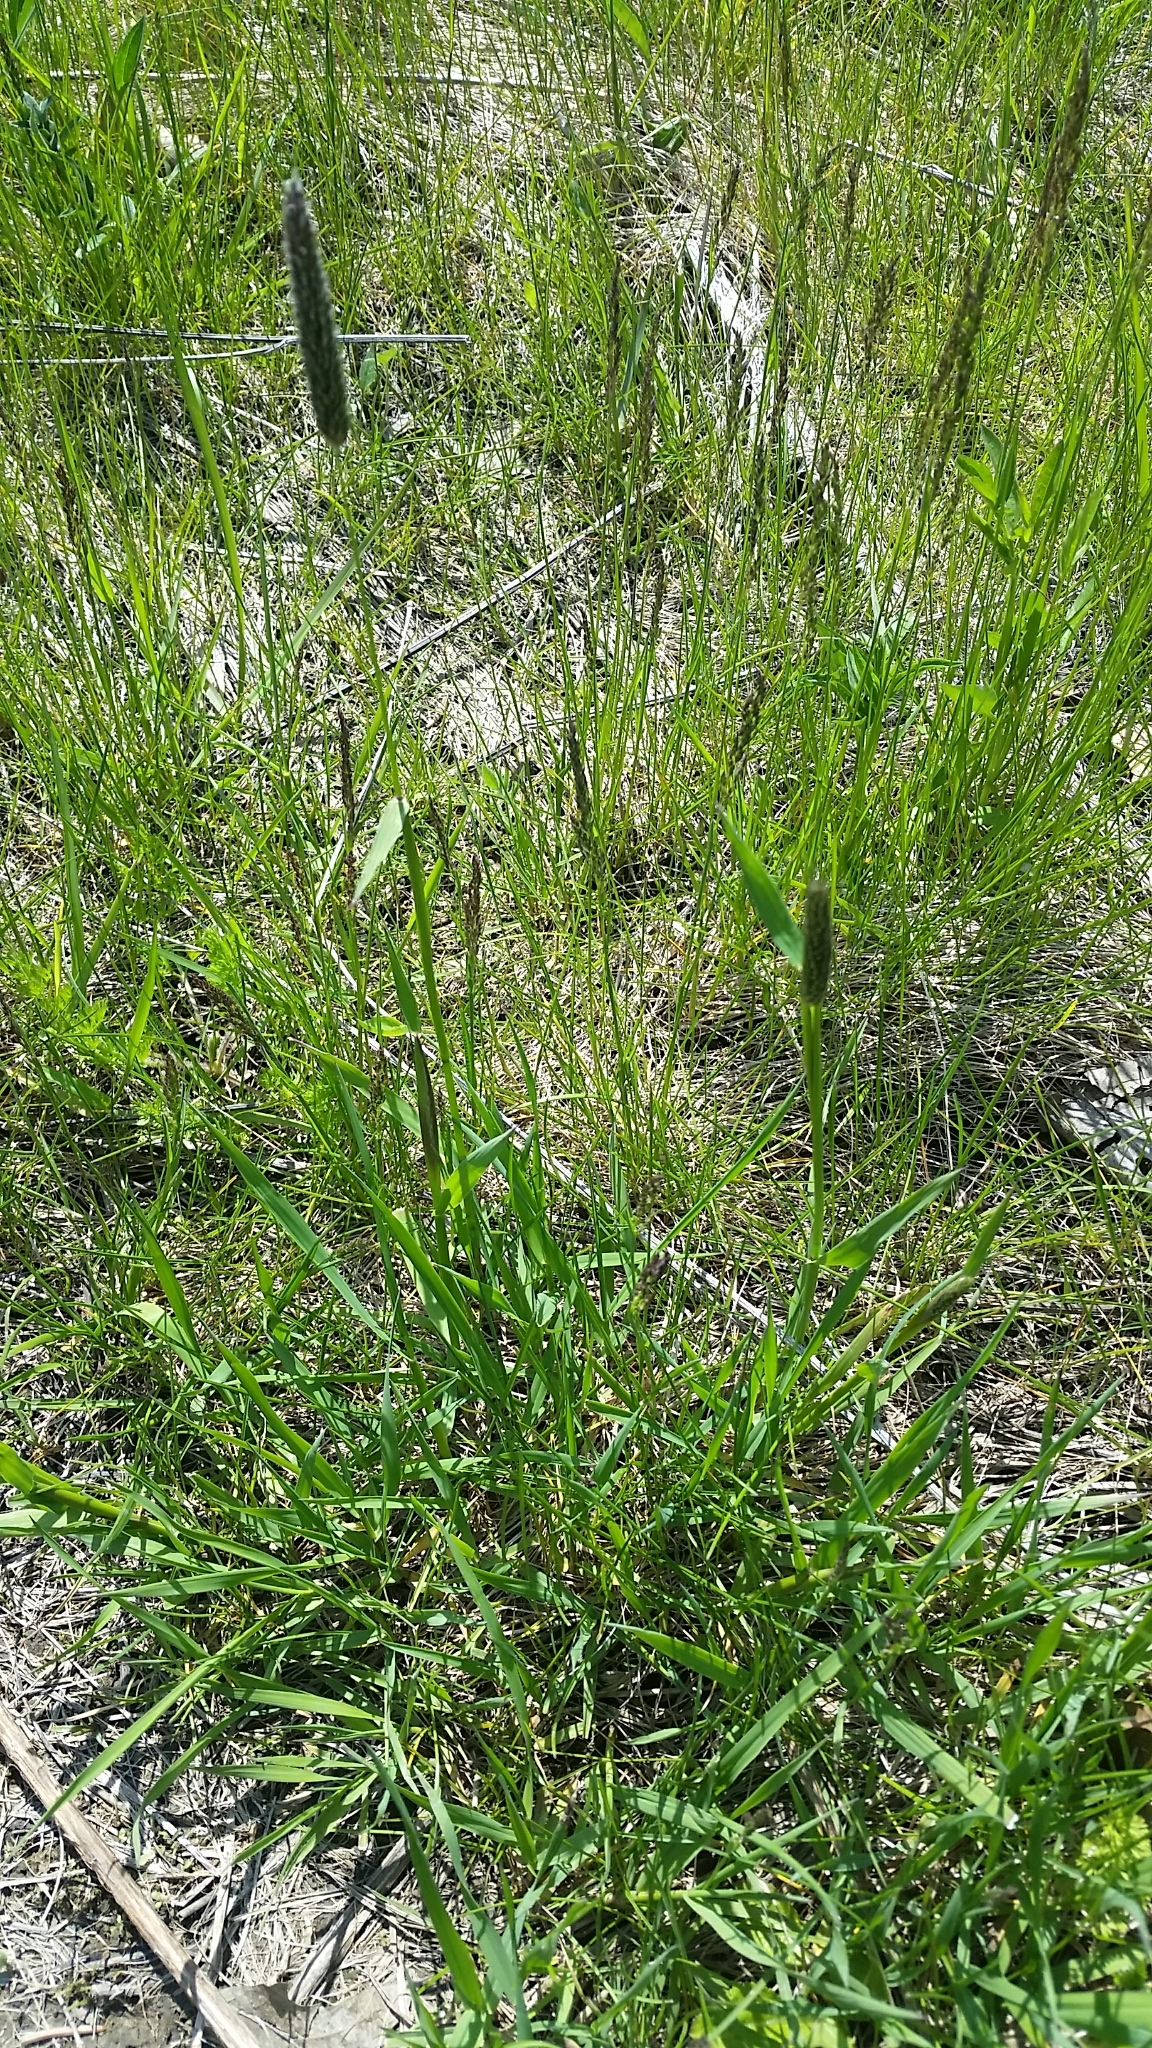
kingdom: Plantae
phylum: Tracheophyta
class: Liliopsida
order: Poales
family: Poaceae
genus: Alopecurus
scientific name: Alopecurus pratensis
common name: Meadow foxtail
